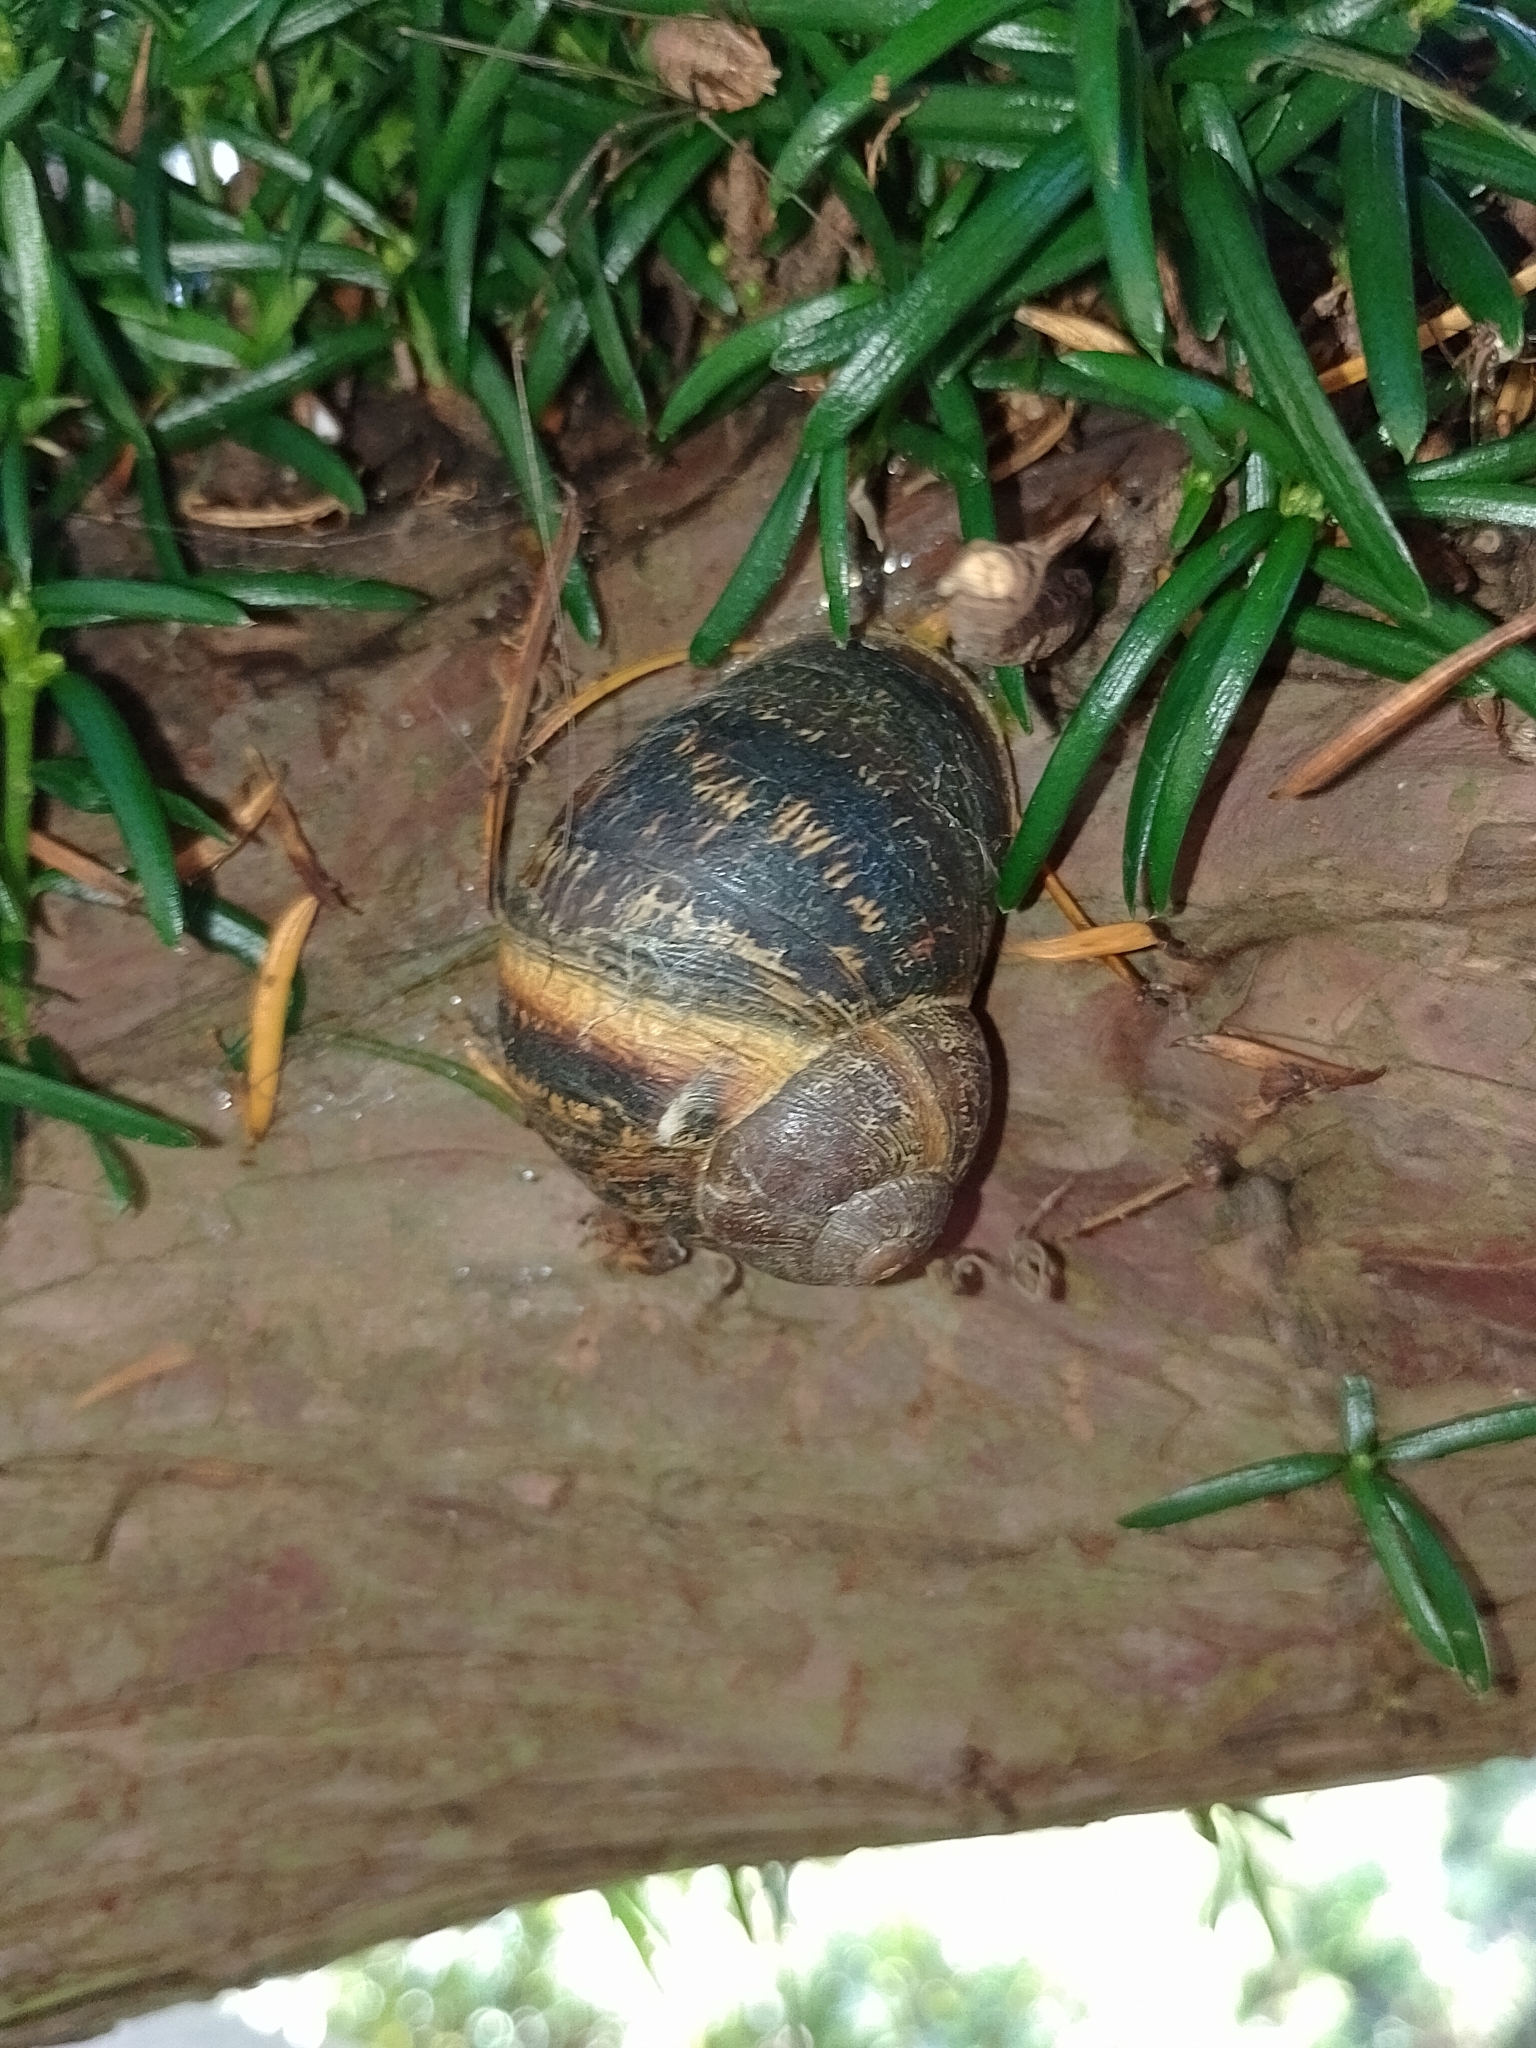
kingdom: Animalia
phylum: Mollusca
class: Gastropoda
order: Stylommatophora
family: Helicidae
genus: Cornu
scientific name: Cornu aspersum
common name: Brown garden snail
